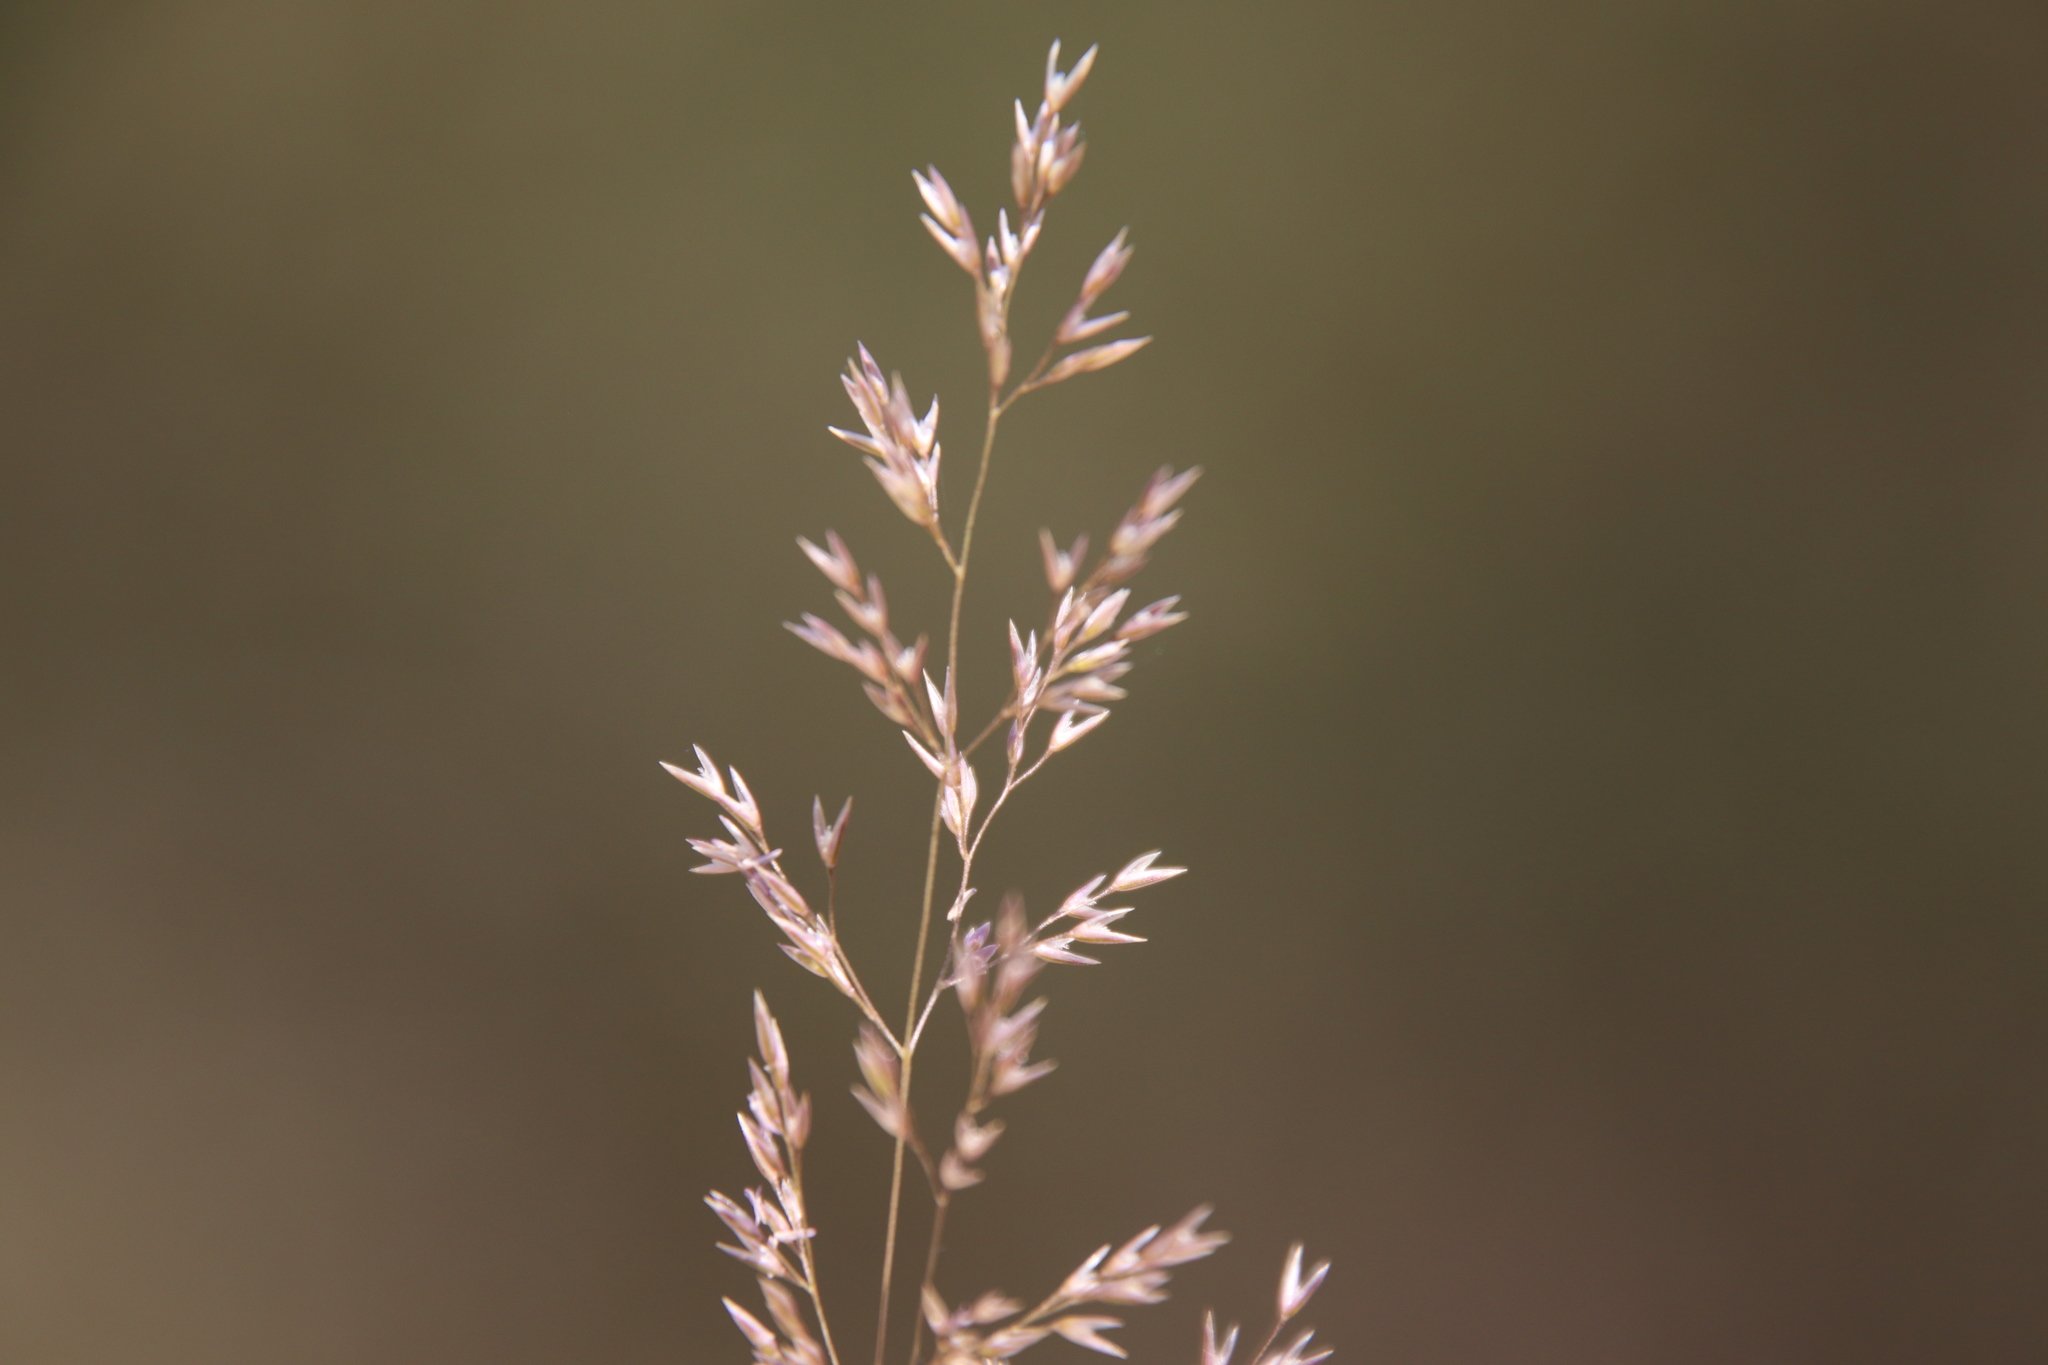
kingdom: Plantae
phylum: Tracheophyta
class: Liliopsida
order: Poales
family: Poaceae
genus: Agrostis
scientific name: Agrostis pallens
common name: Dune bent
